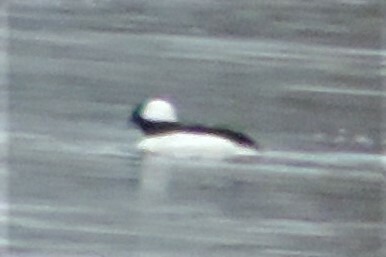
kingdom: Animalia
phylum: Chordata
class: Aves
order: Anseriformes
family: Anatidae
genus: Bucephala
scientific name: Bucephala albeola
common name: Bufflehead
